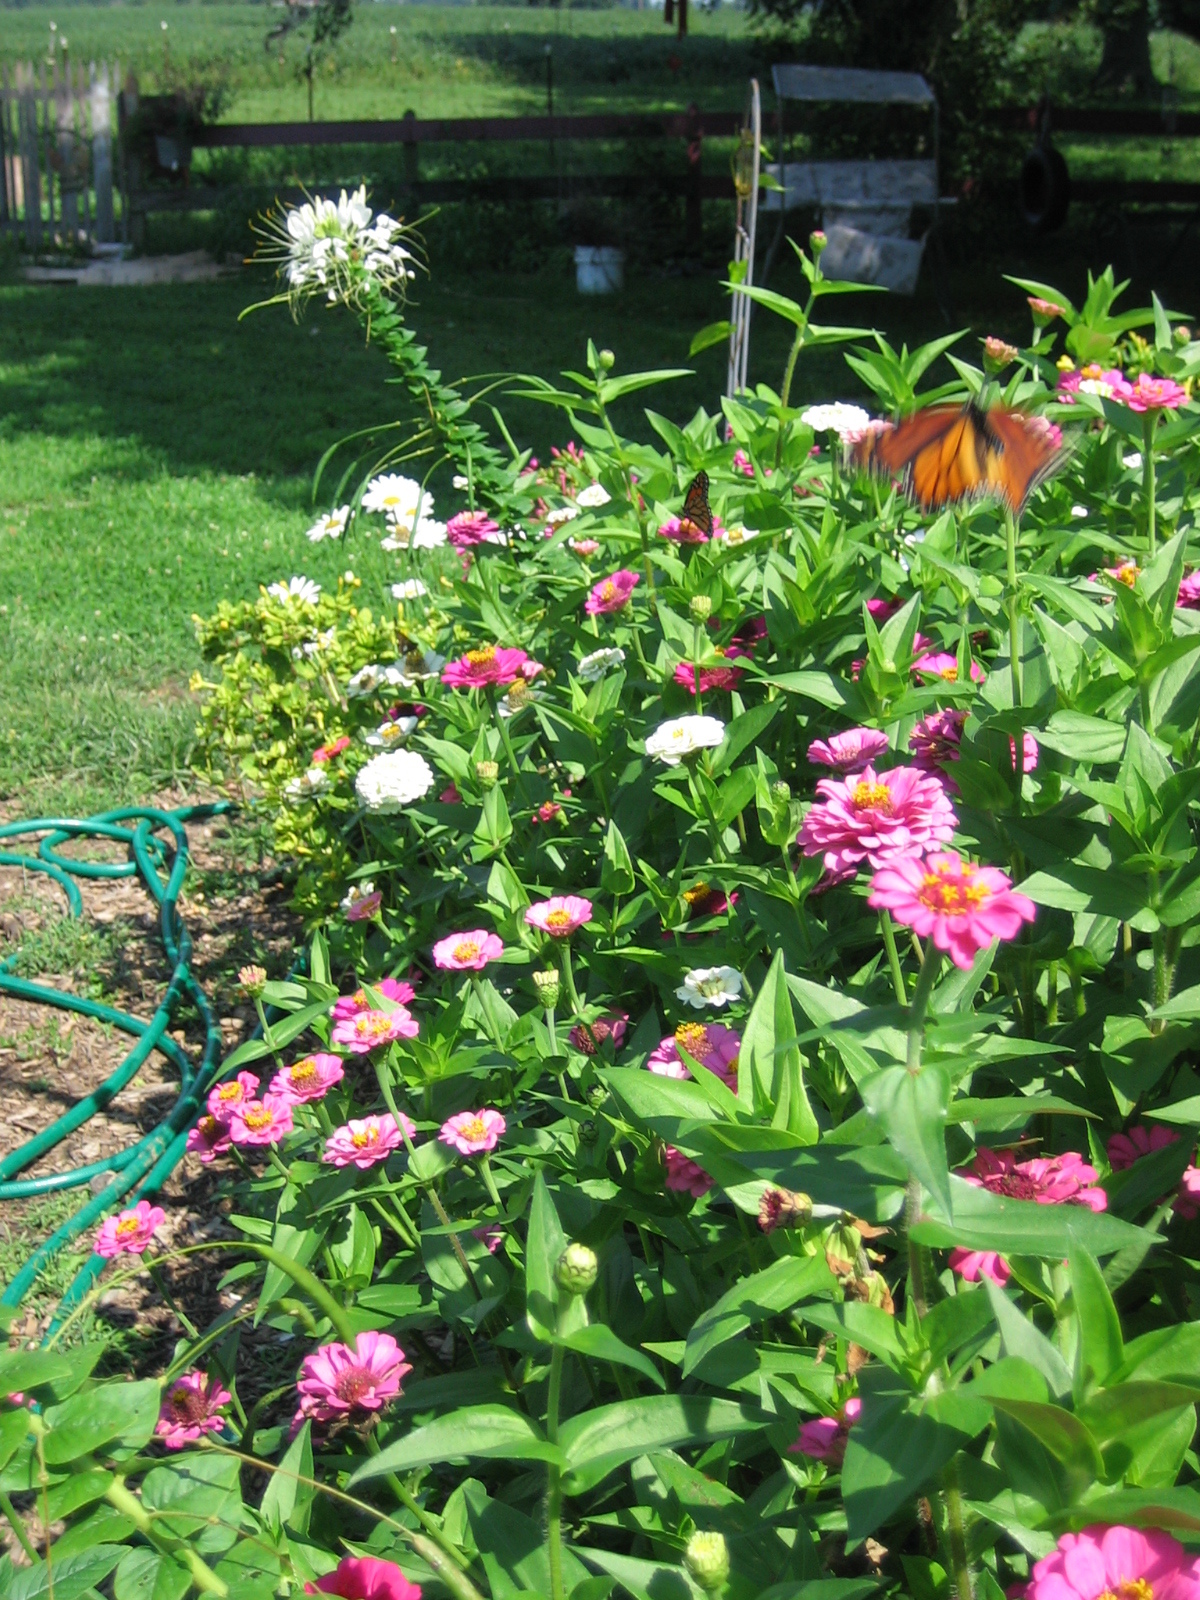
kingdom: Animalia
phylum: Arthropoda
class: Insecta
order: Lepidoptera
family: Nymphalidae
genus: Danaus
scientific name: Danaus plexippus
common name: Monarch
